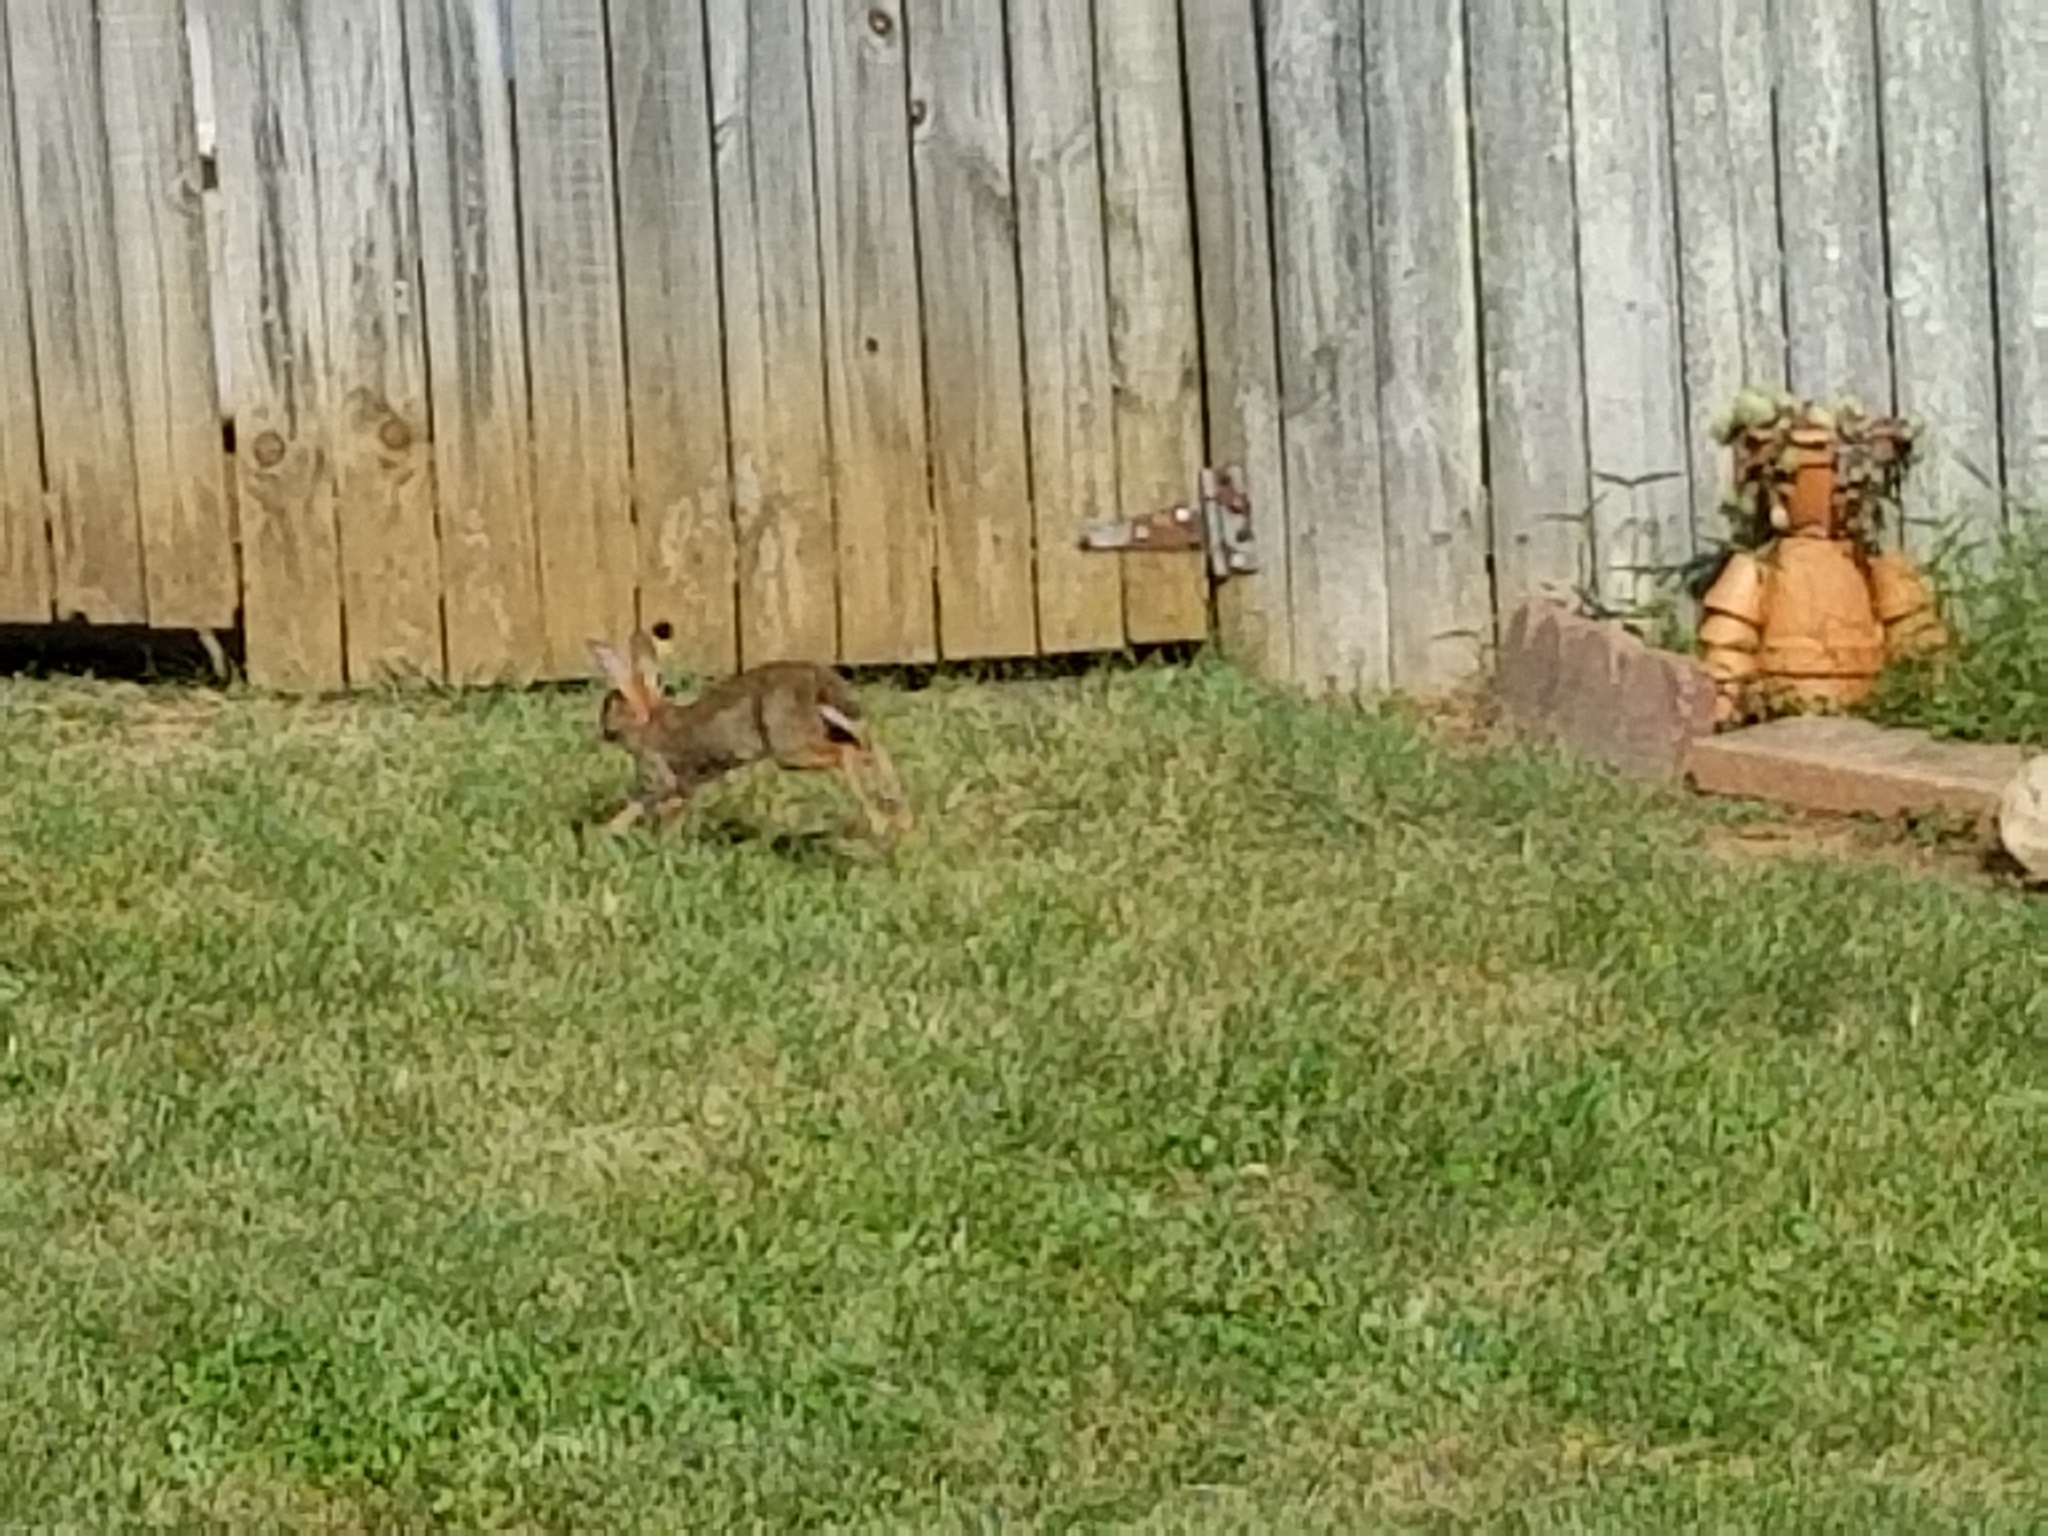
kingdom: Animalia
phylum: Chordata
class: Mammalia
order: Lagomorpha
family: Leporidae
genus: Sylvilagus
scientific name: Sylvilagus floridanus
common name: Eastern cottontail
